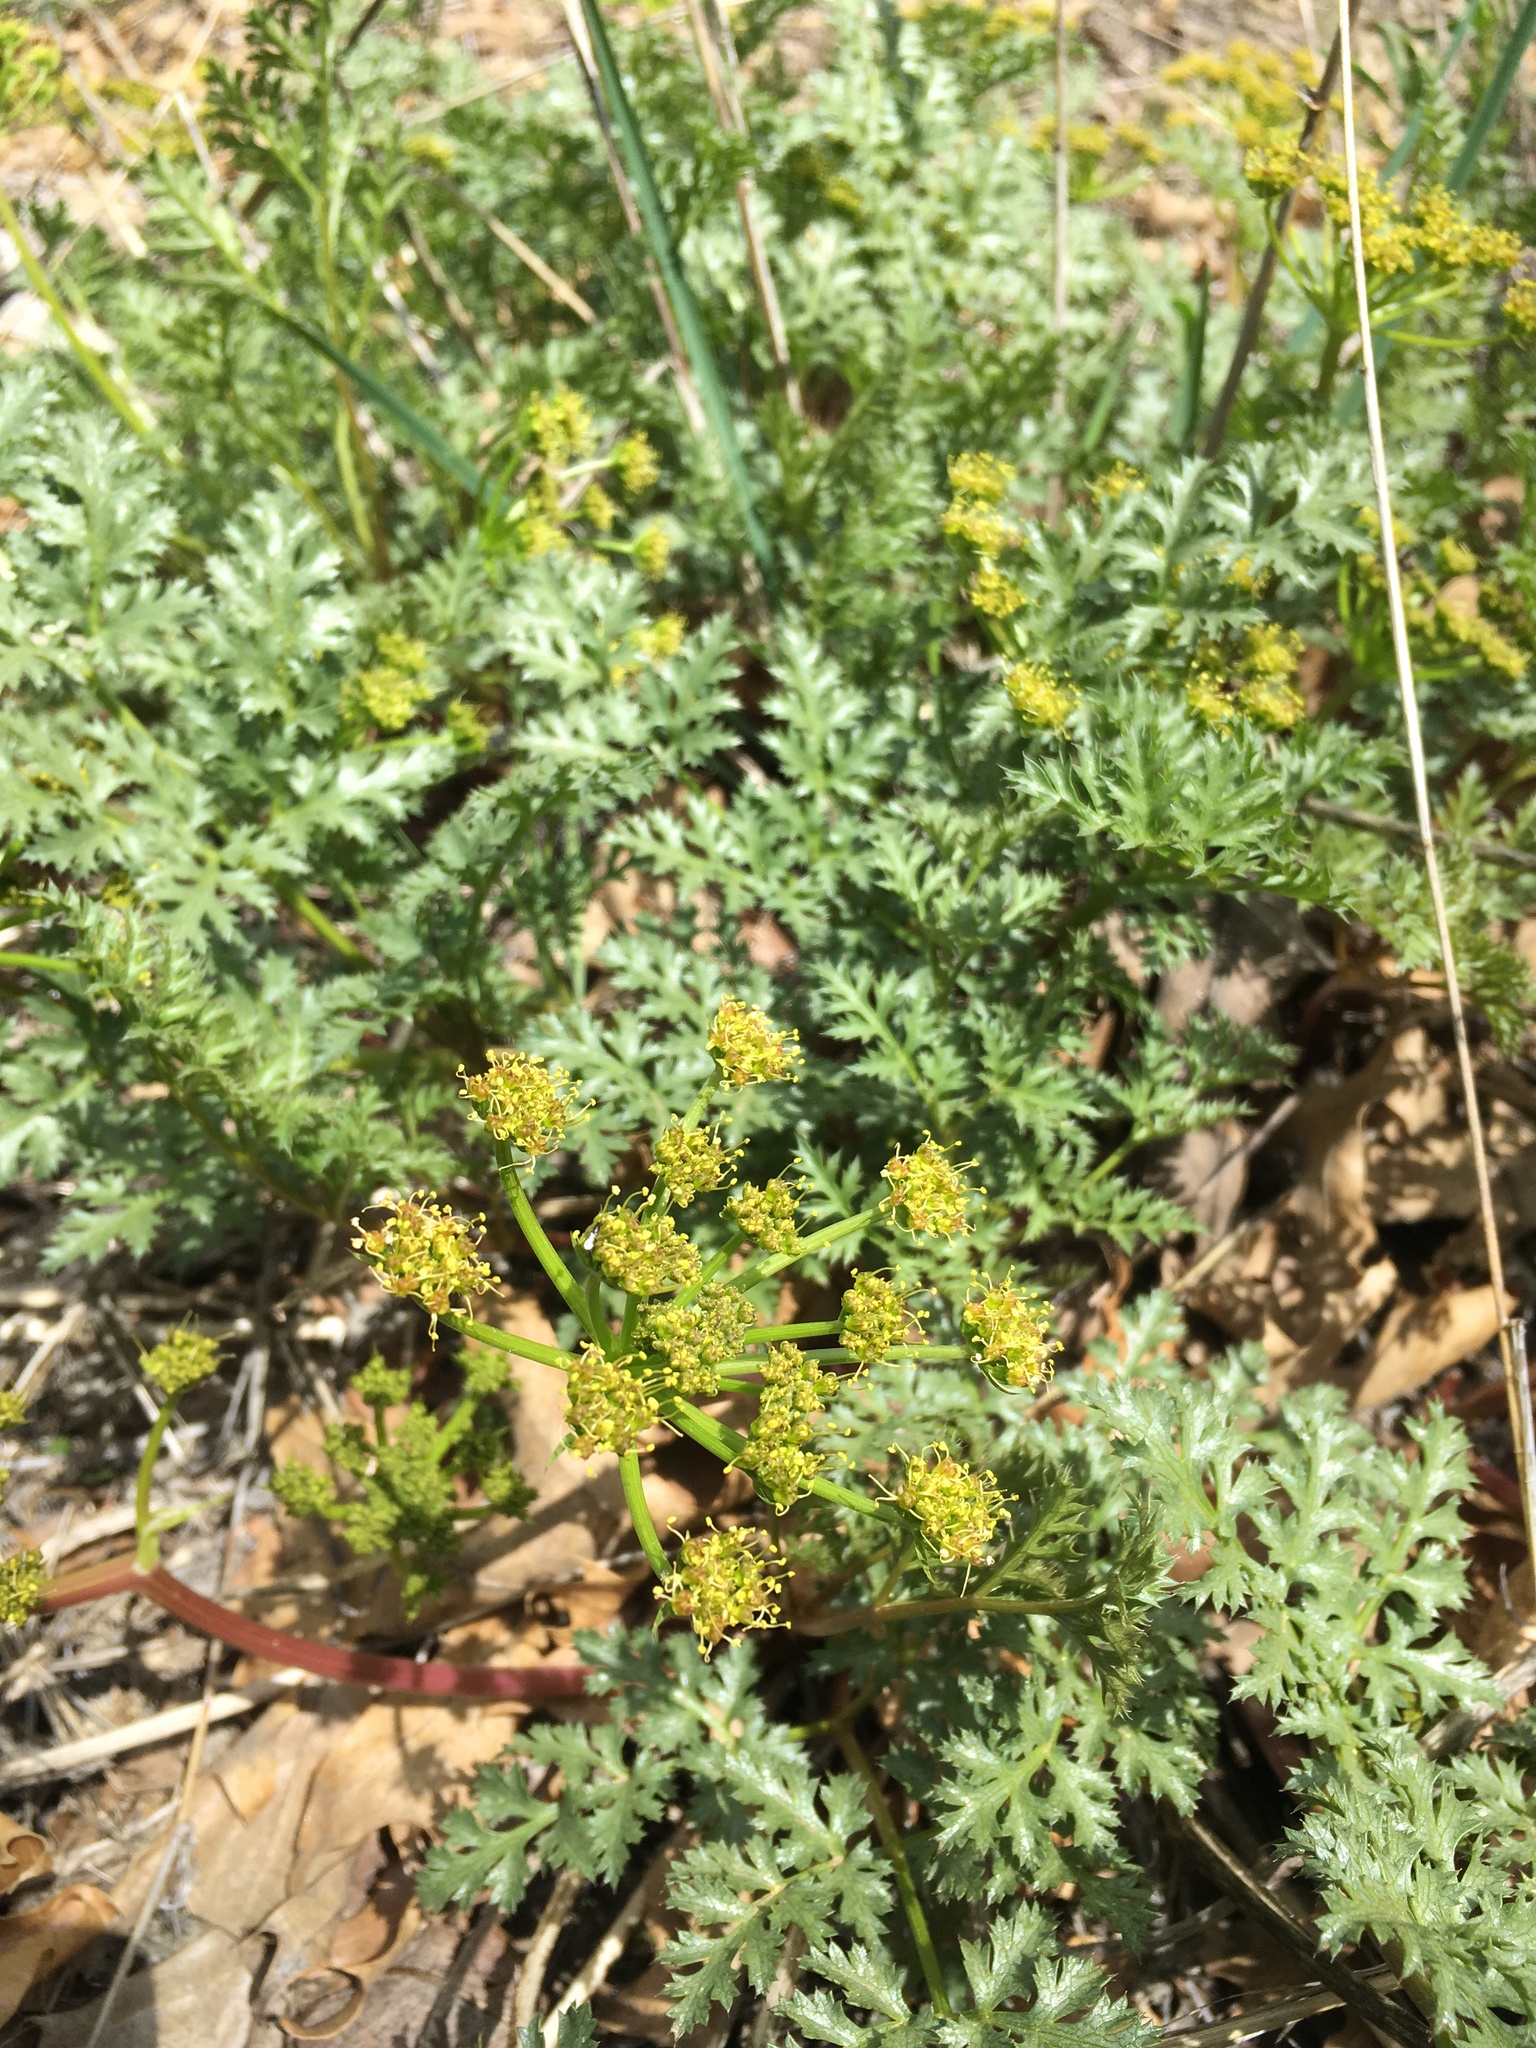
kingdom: Plantae
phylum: Tracheophyta
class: Magnoliopsida
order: Apiales
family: Apiaceae
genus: Tauschia
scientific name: Tauschia parishii
